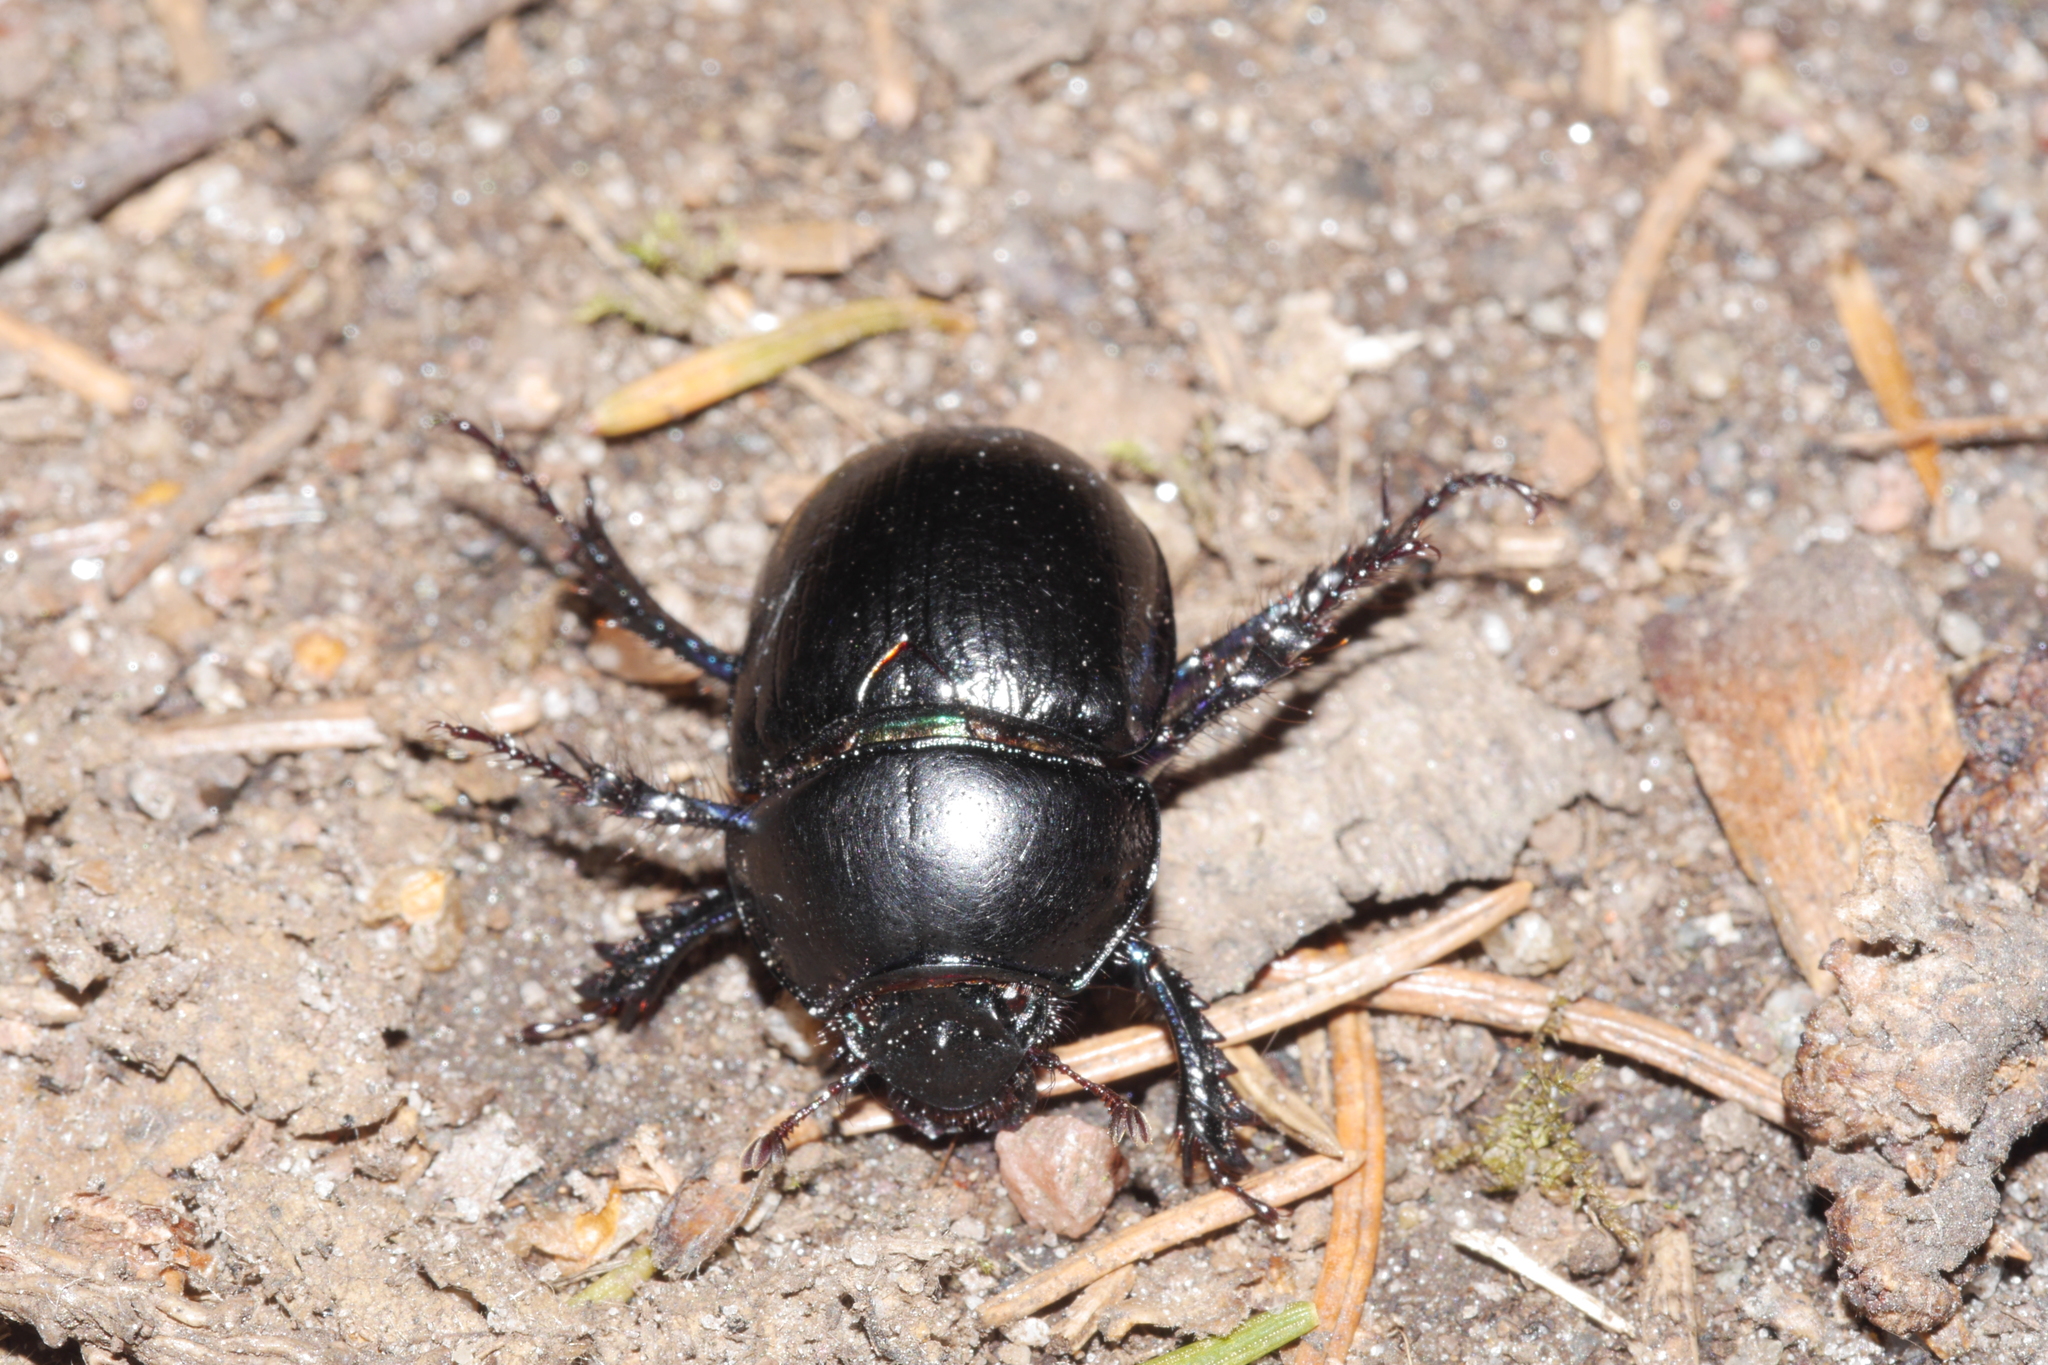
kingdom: Animalia
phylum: Arthropoda
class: Insecta
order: Coleoptera
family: Geotrupidae
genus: Anoplotrupes
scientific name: Anoplotrupes stercorosus
